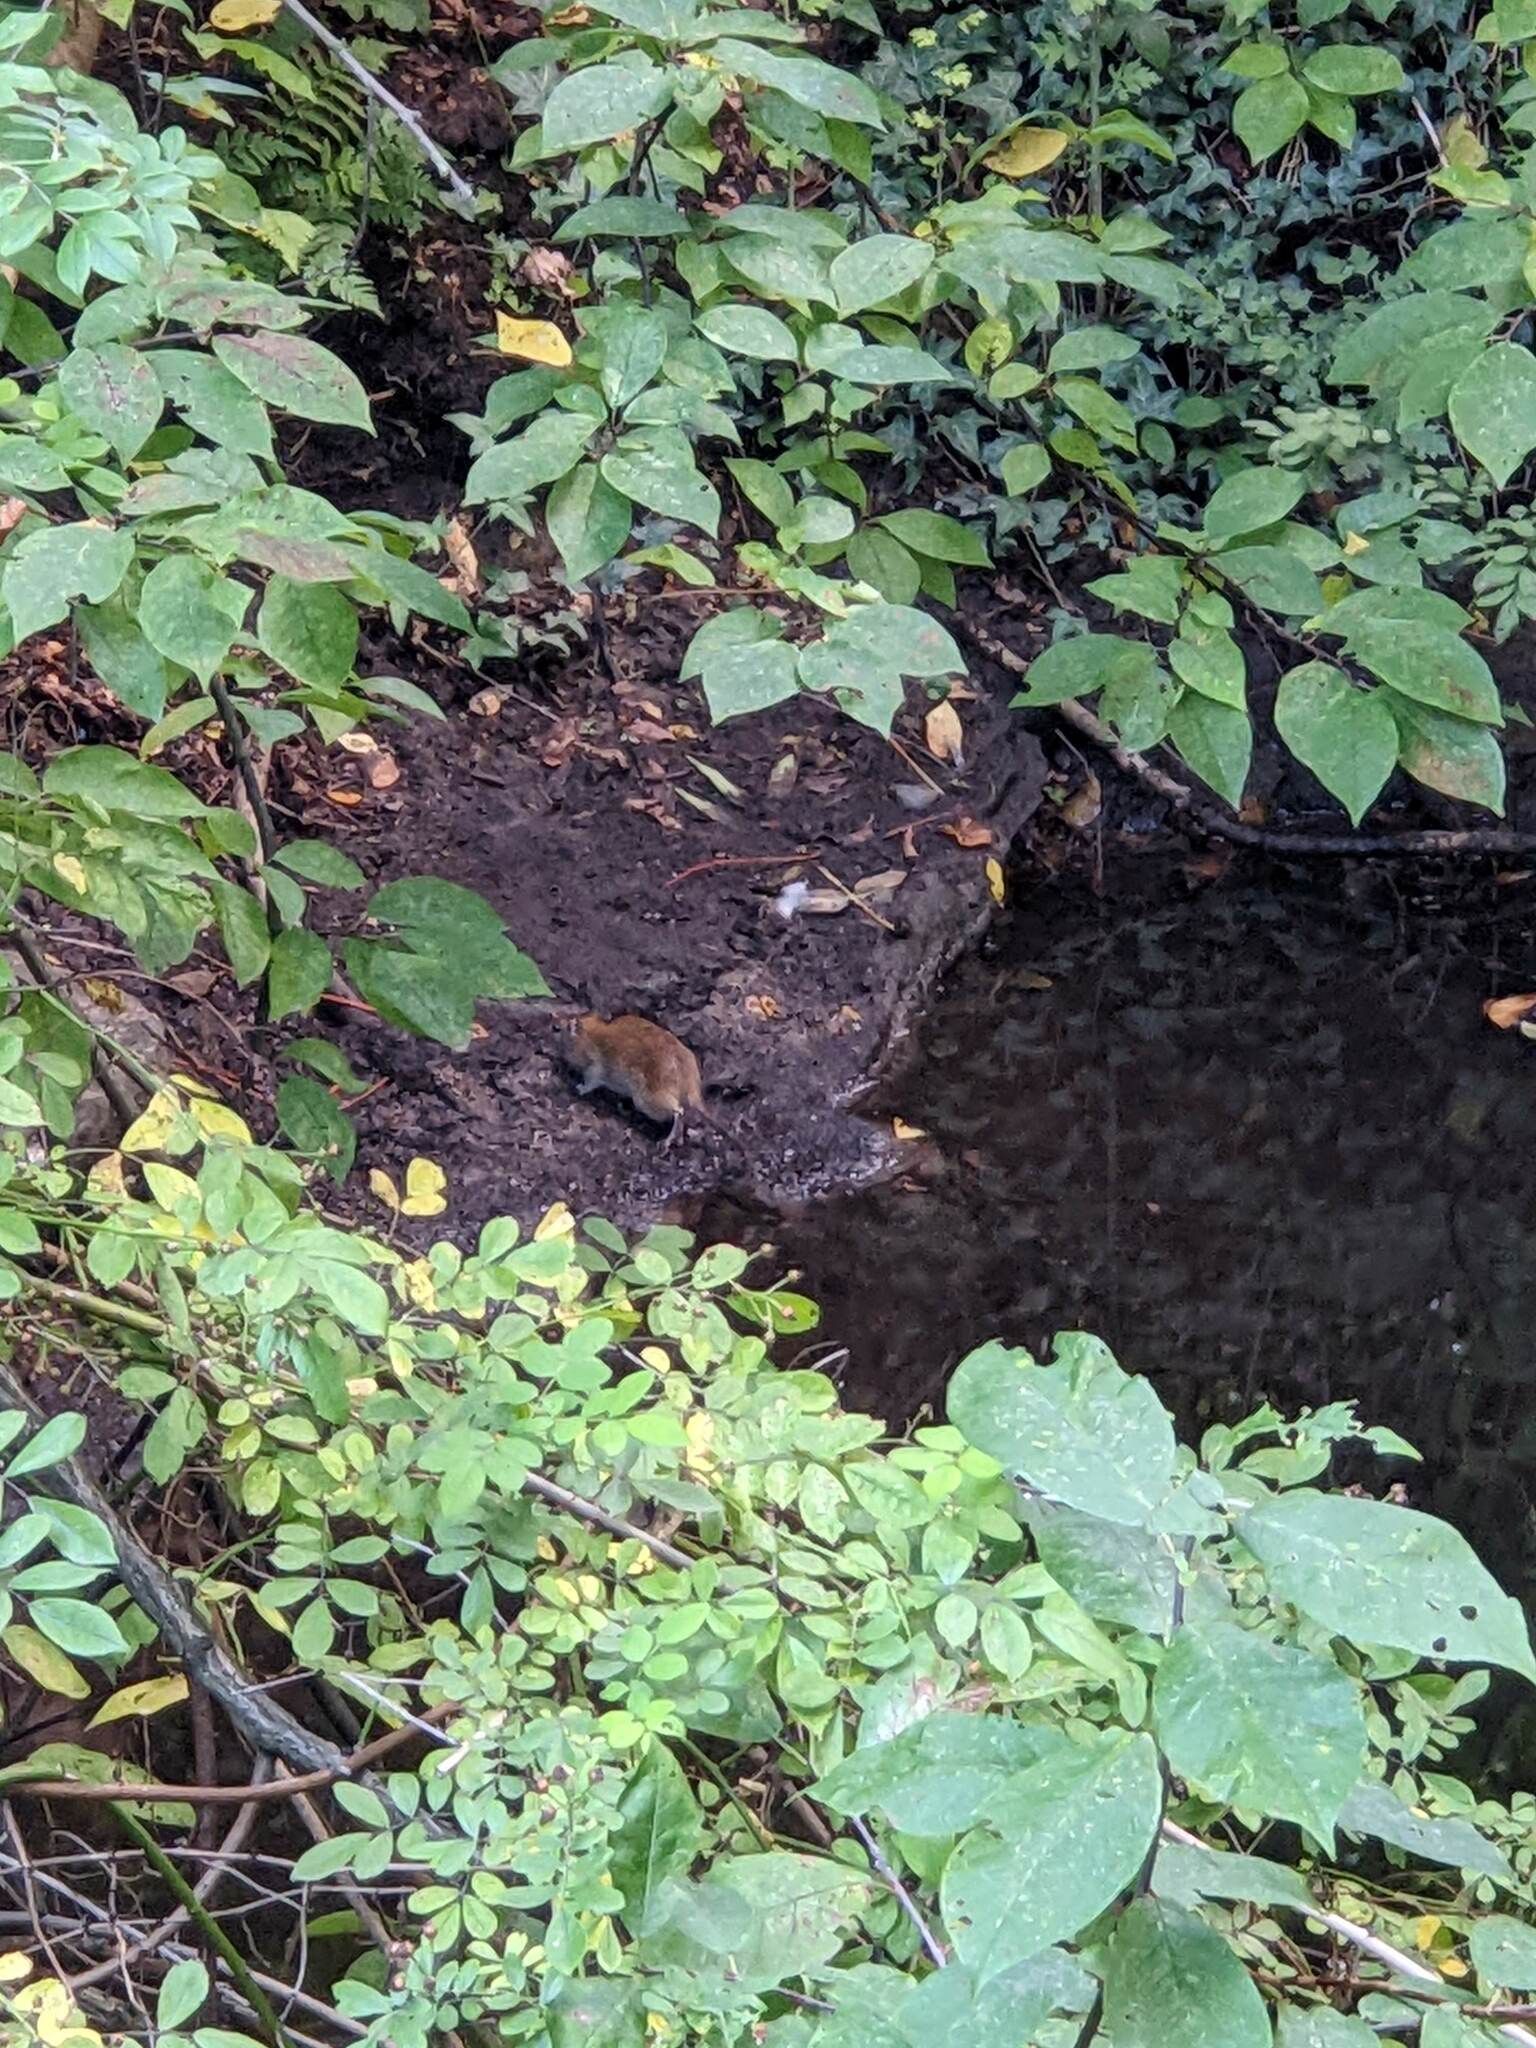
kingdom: Animalia
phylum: Chordata
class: Mammalia
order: Rodentia
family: Muridae
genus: Rattus
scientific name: Rattus norvegicus
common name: Brown rat
